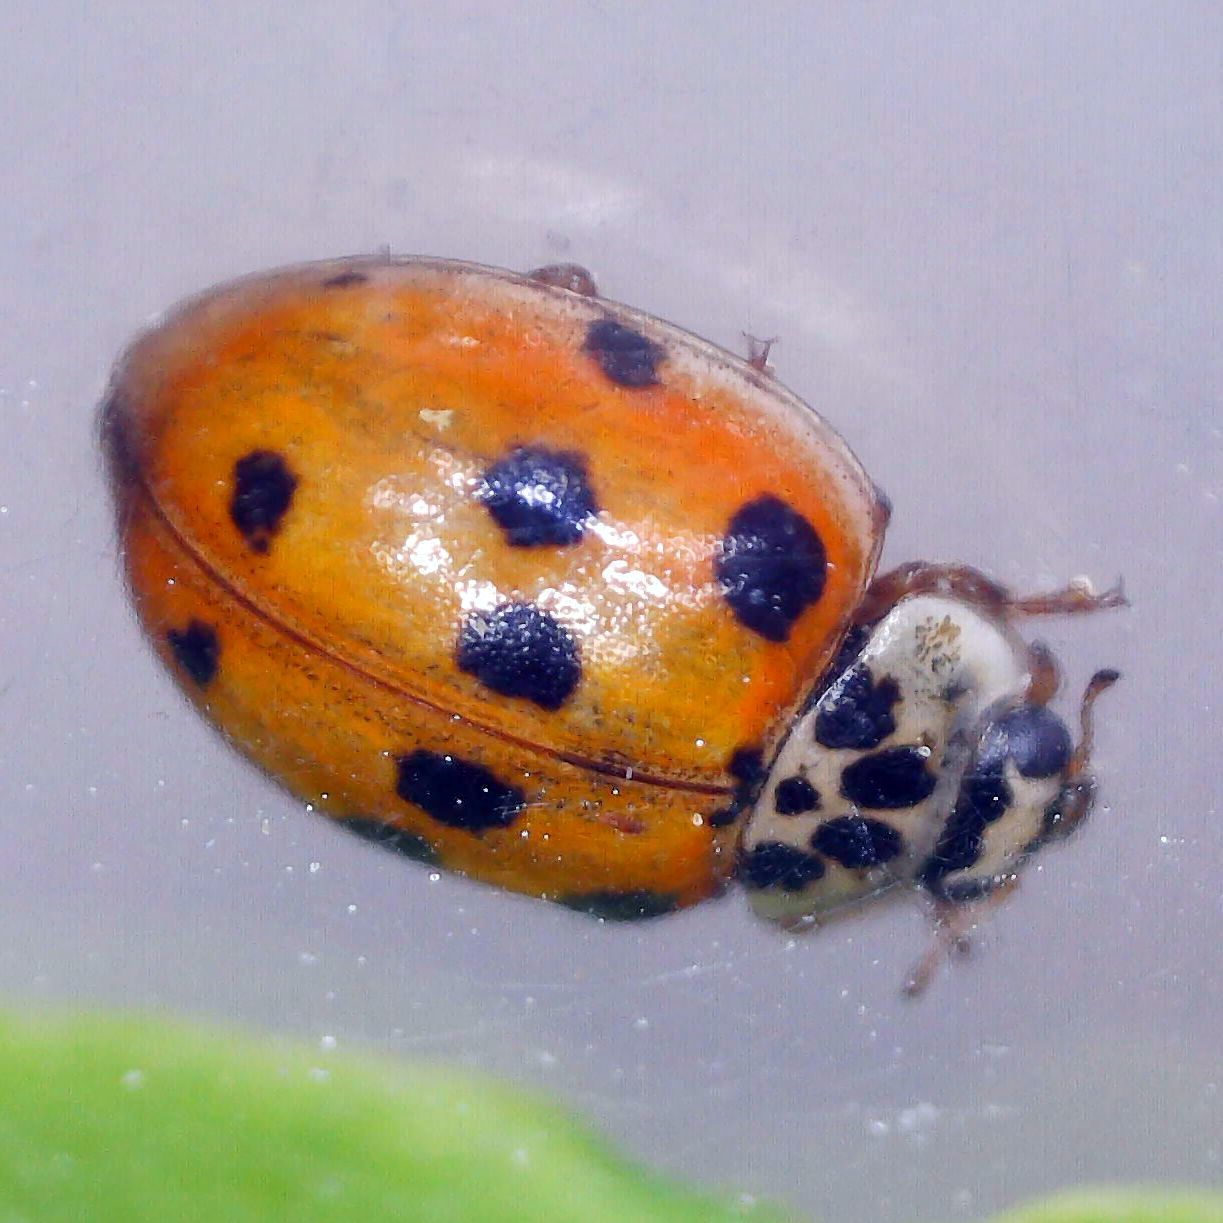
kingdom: Animalia
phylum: Arthropoda
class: Insecta
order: Coleoptera
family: Coccinellidae
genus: Adalia
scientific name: Adalia decempunctata
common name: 10-spot ladybird
